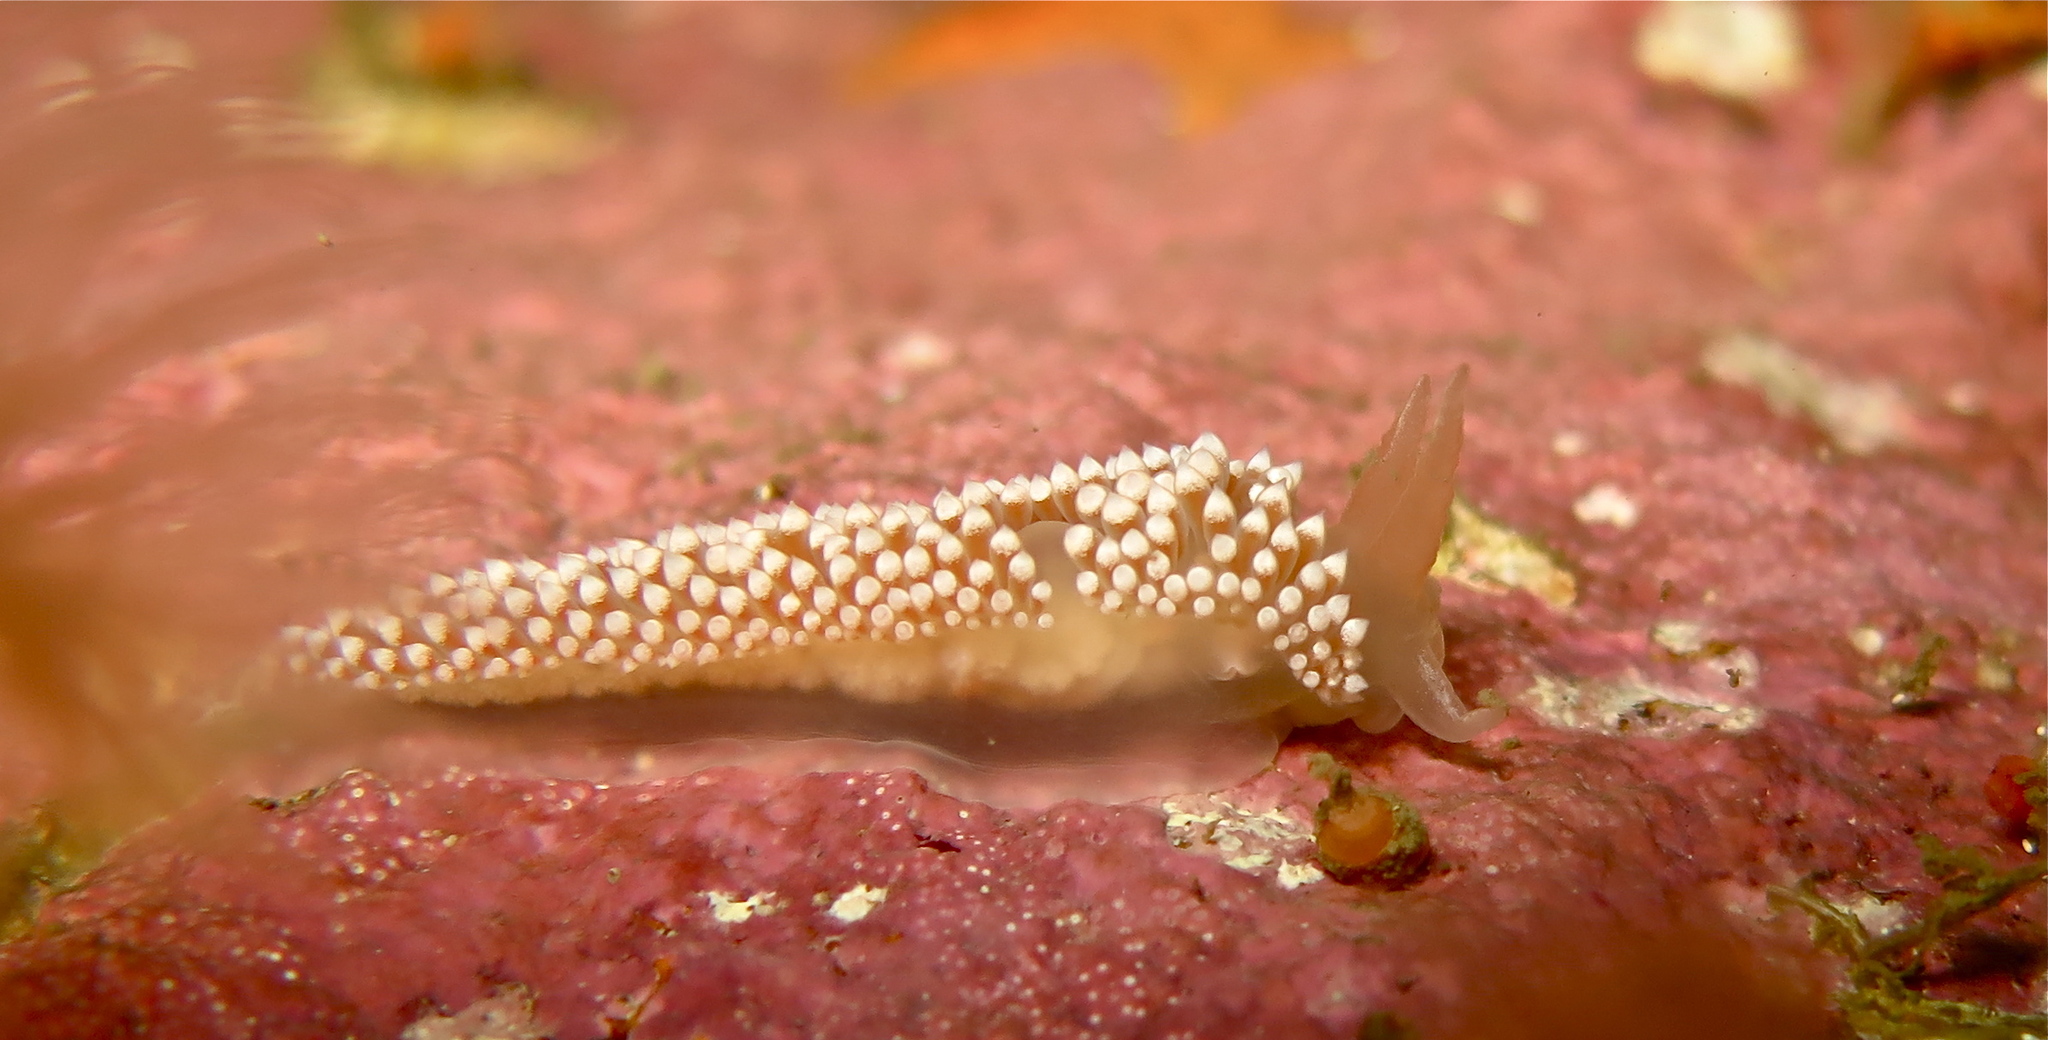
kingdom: Animalia
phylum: Mollusca
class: Gastropoda
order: Nudibranchia
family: Coryphellidae
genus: Coryphella
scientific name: Coryphella verrucosa
